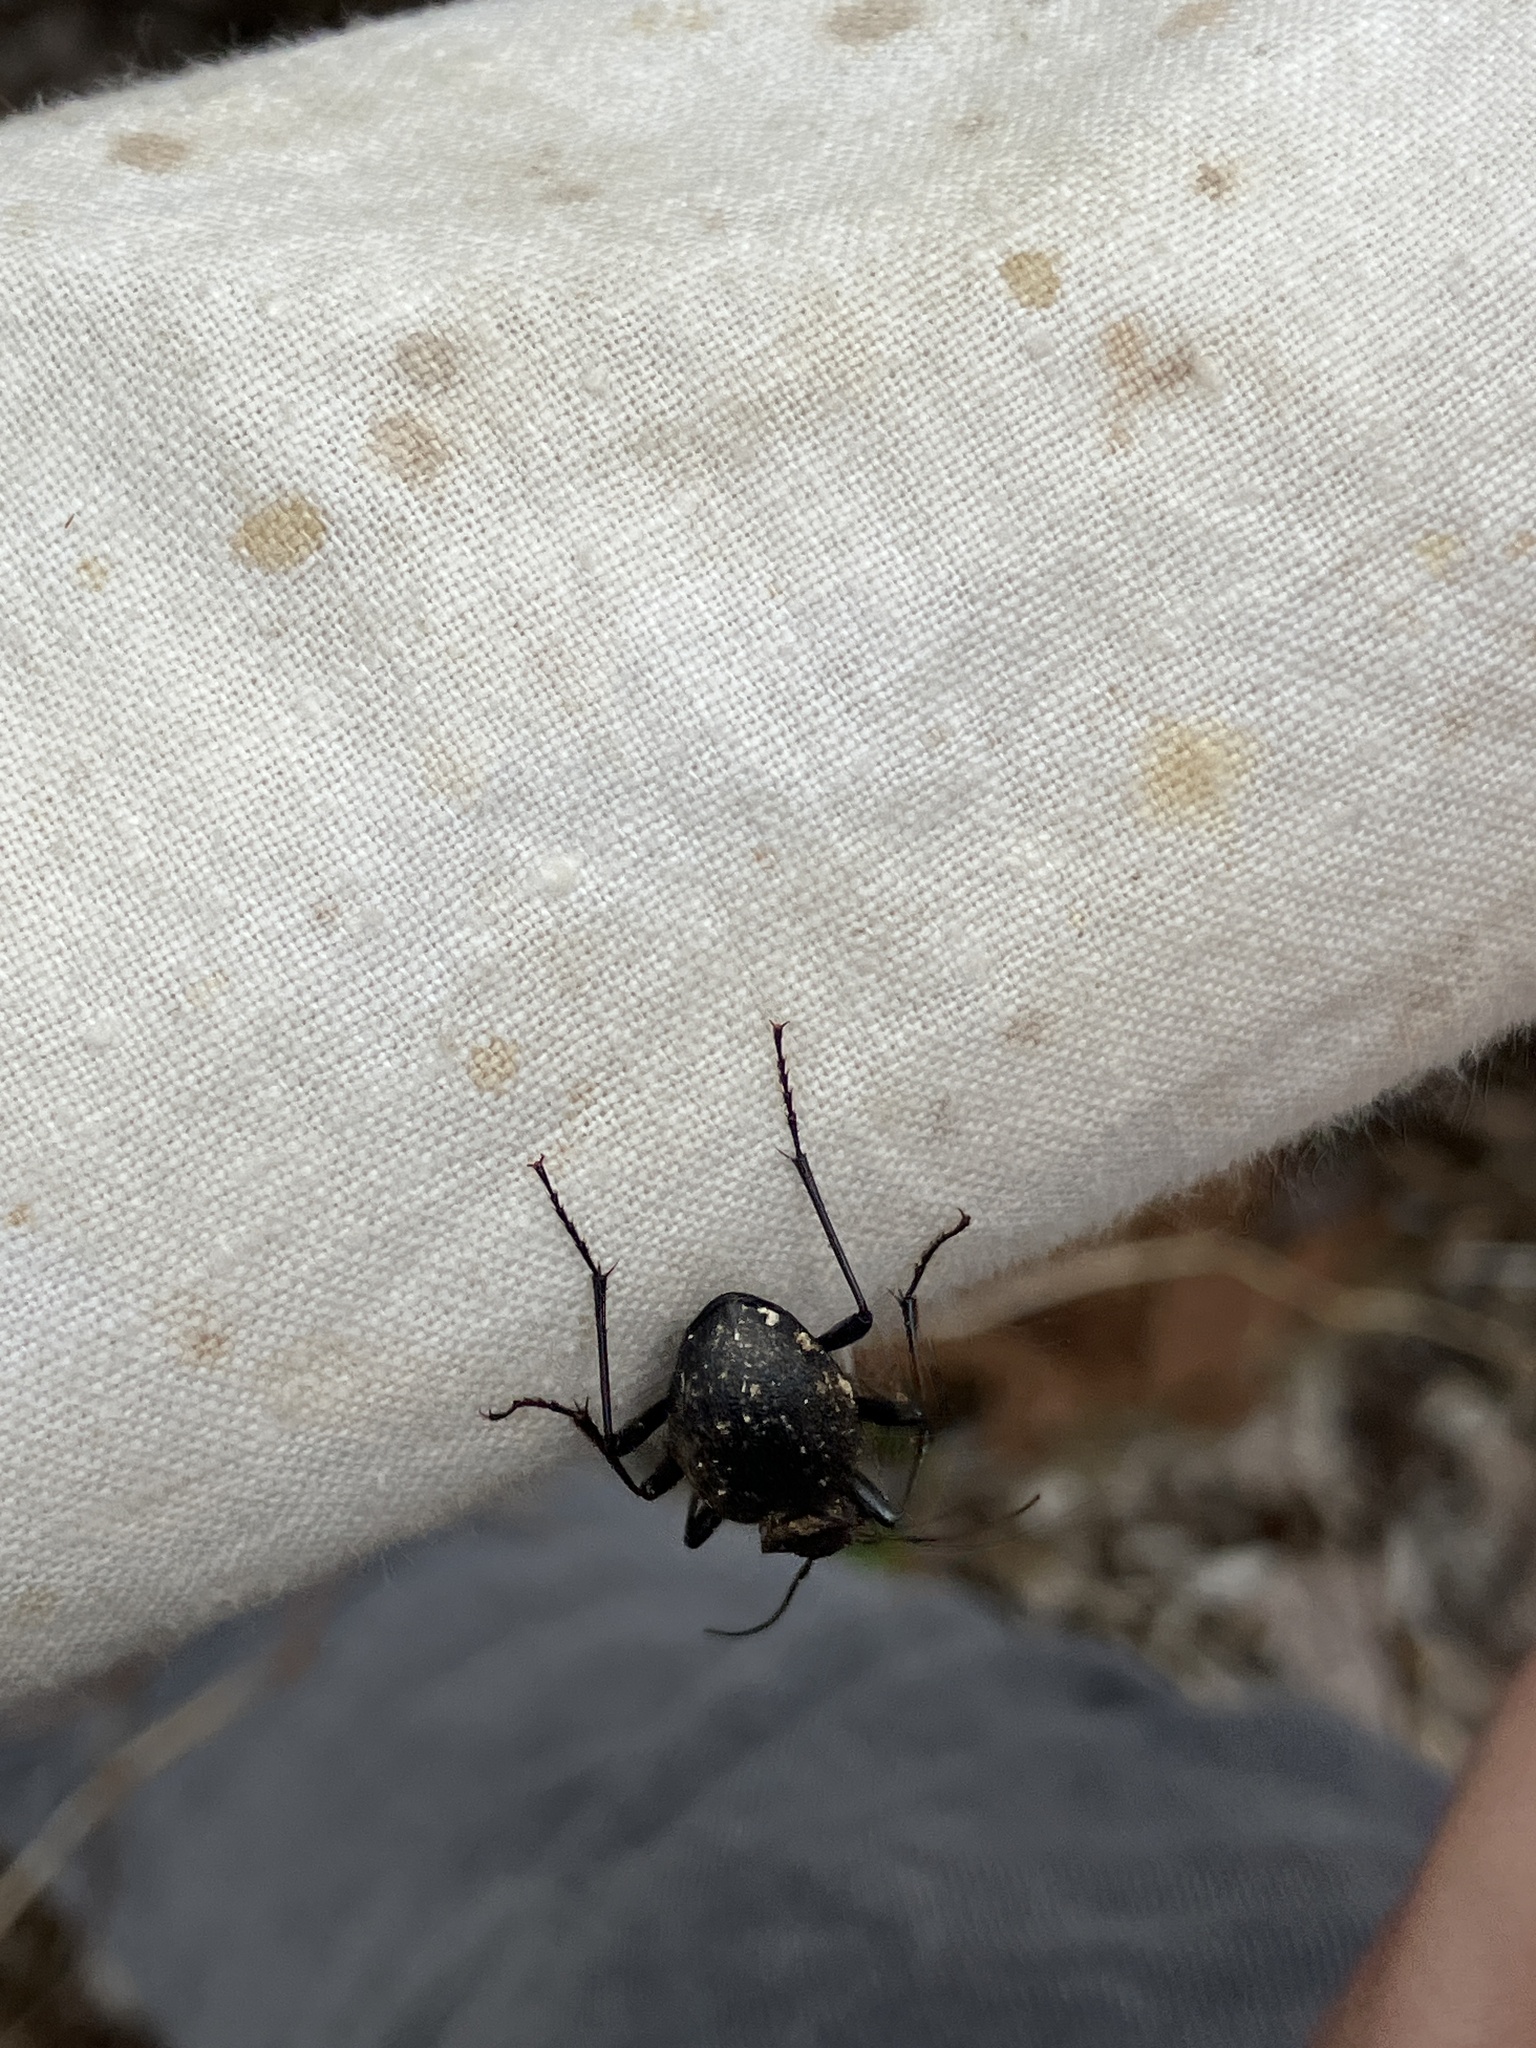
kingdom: Animalia
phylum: Arthropoda
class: Insecta
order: Coleoptera
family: Carabidae
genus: Cychrus
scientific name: Cychrus caraboides
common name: Snail hunter
